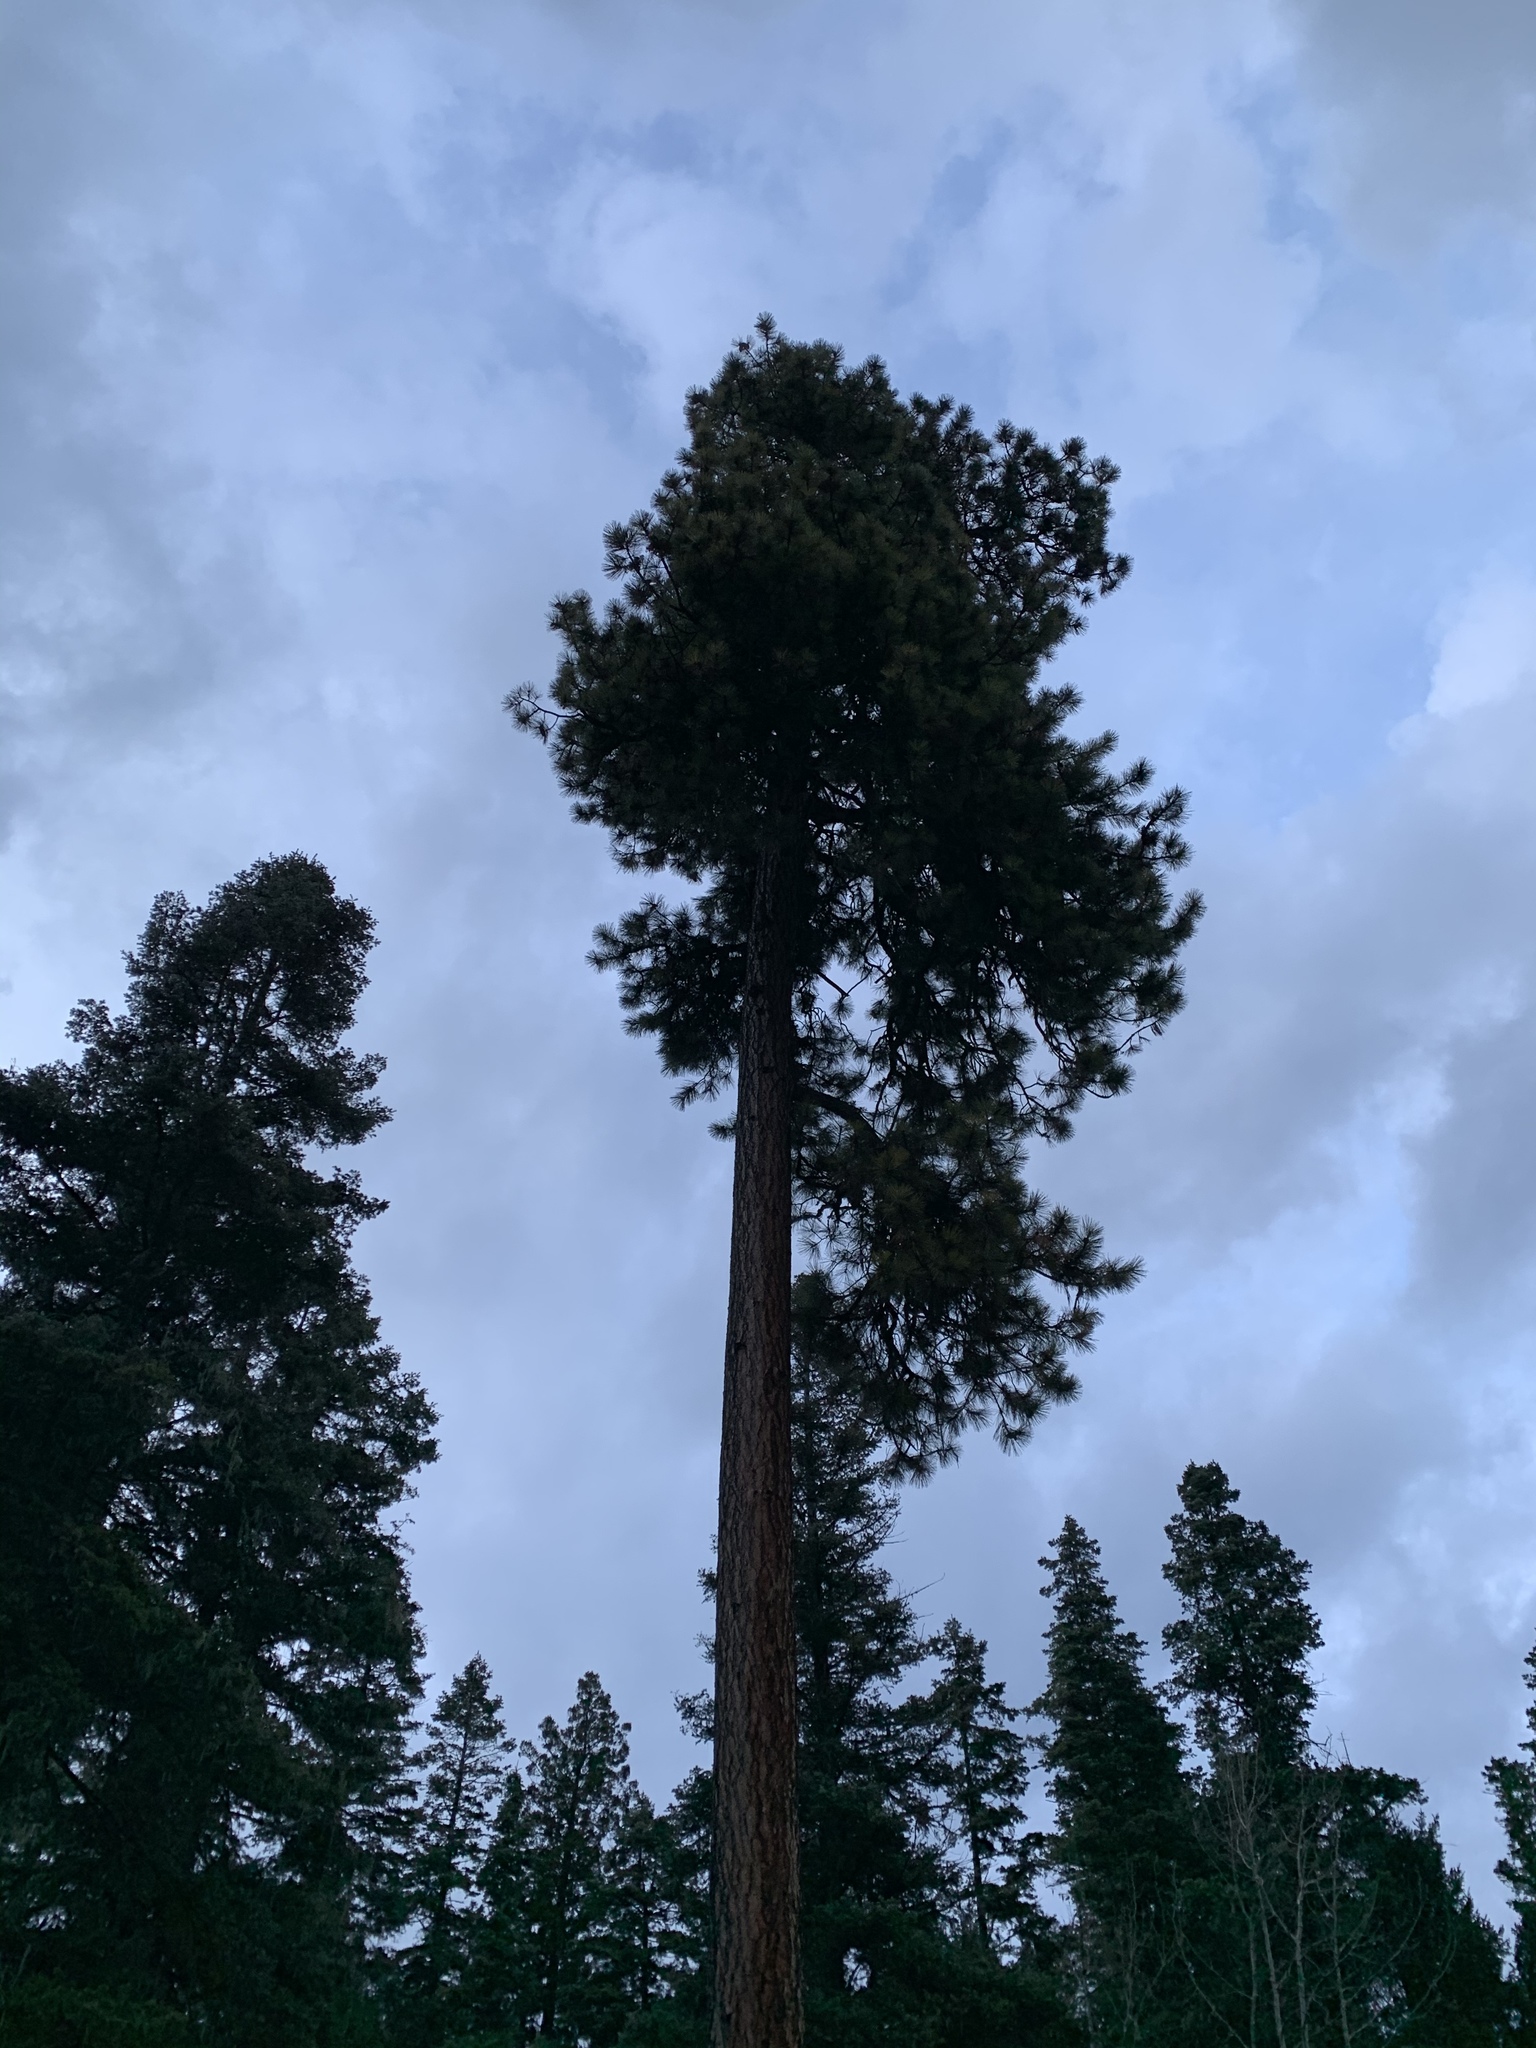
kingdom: Plantae
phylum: Tracheophyta
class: Pinopsida
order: Pinales
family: Pinaceae
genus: Pinus
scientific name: Pinus ponderosa
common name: Western yellow-pine
